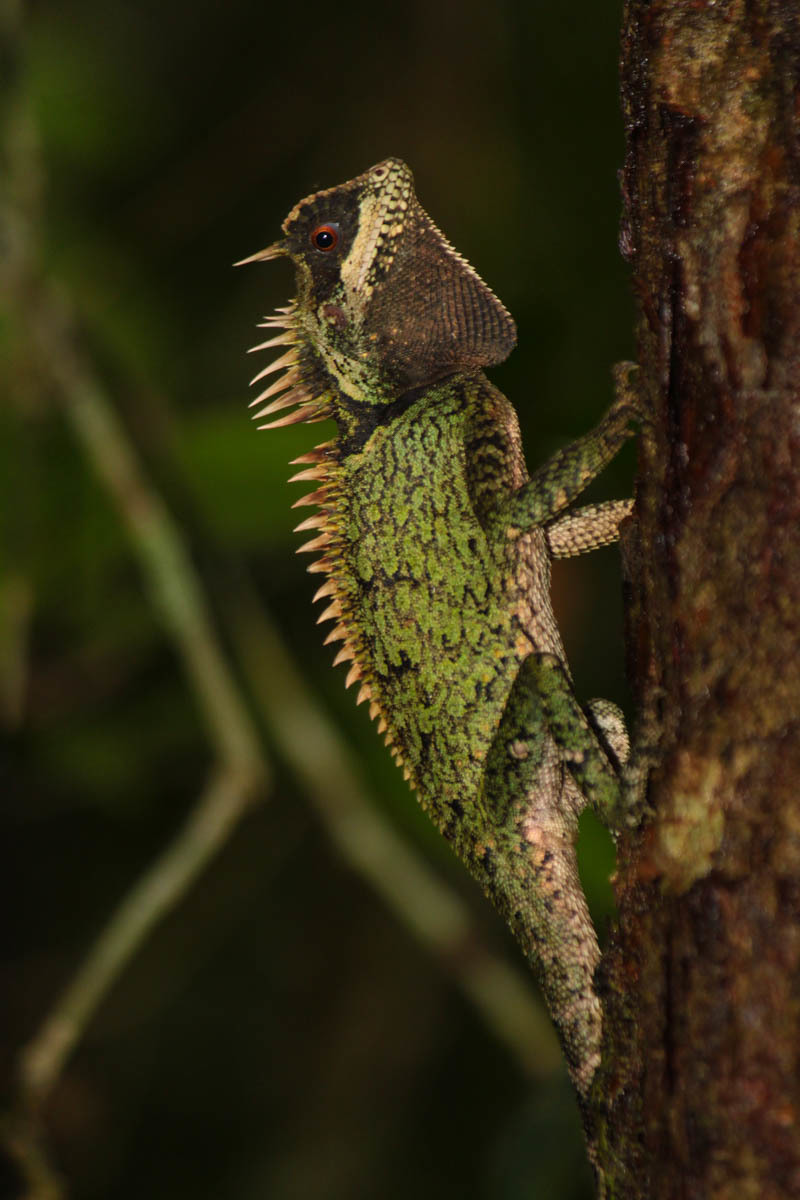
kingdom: Animalia
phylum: Chordata
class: Squamata
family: Agamidae
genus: Acanthosaura
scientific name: Acanthosaura cardamomensis
